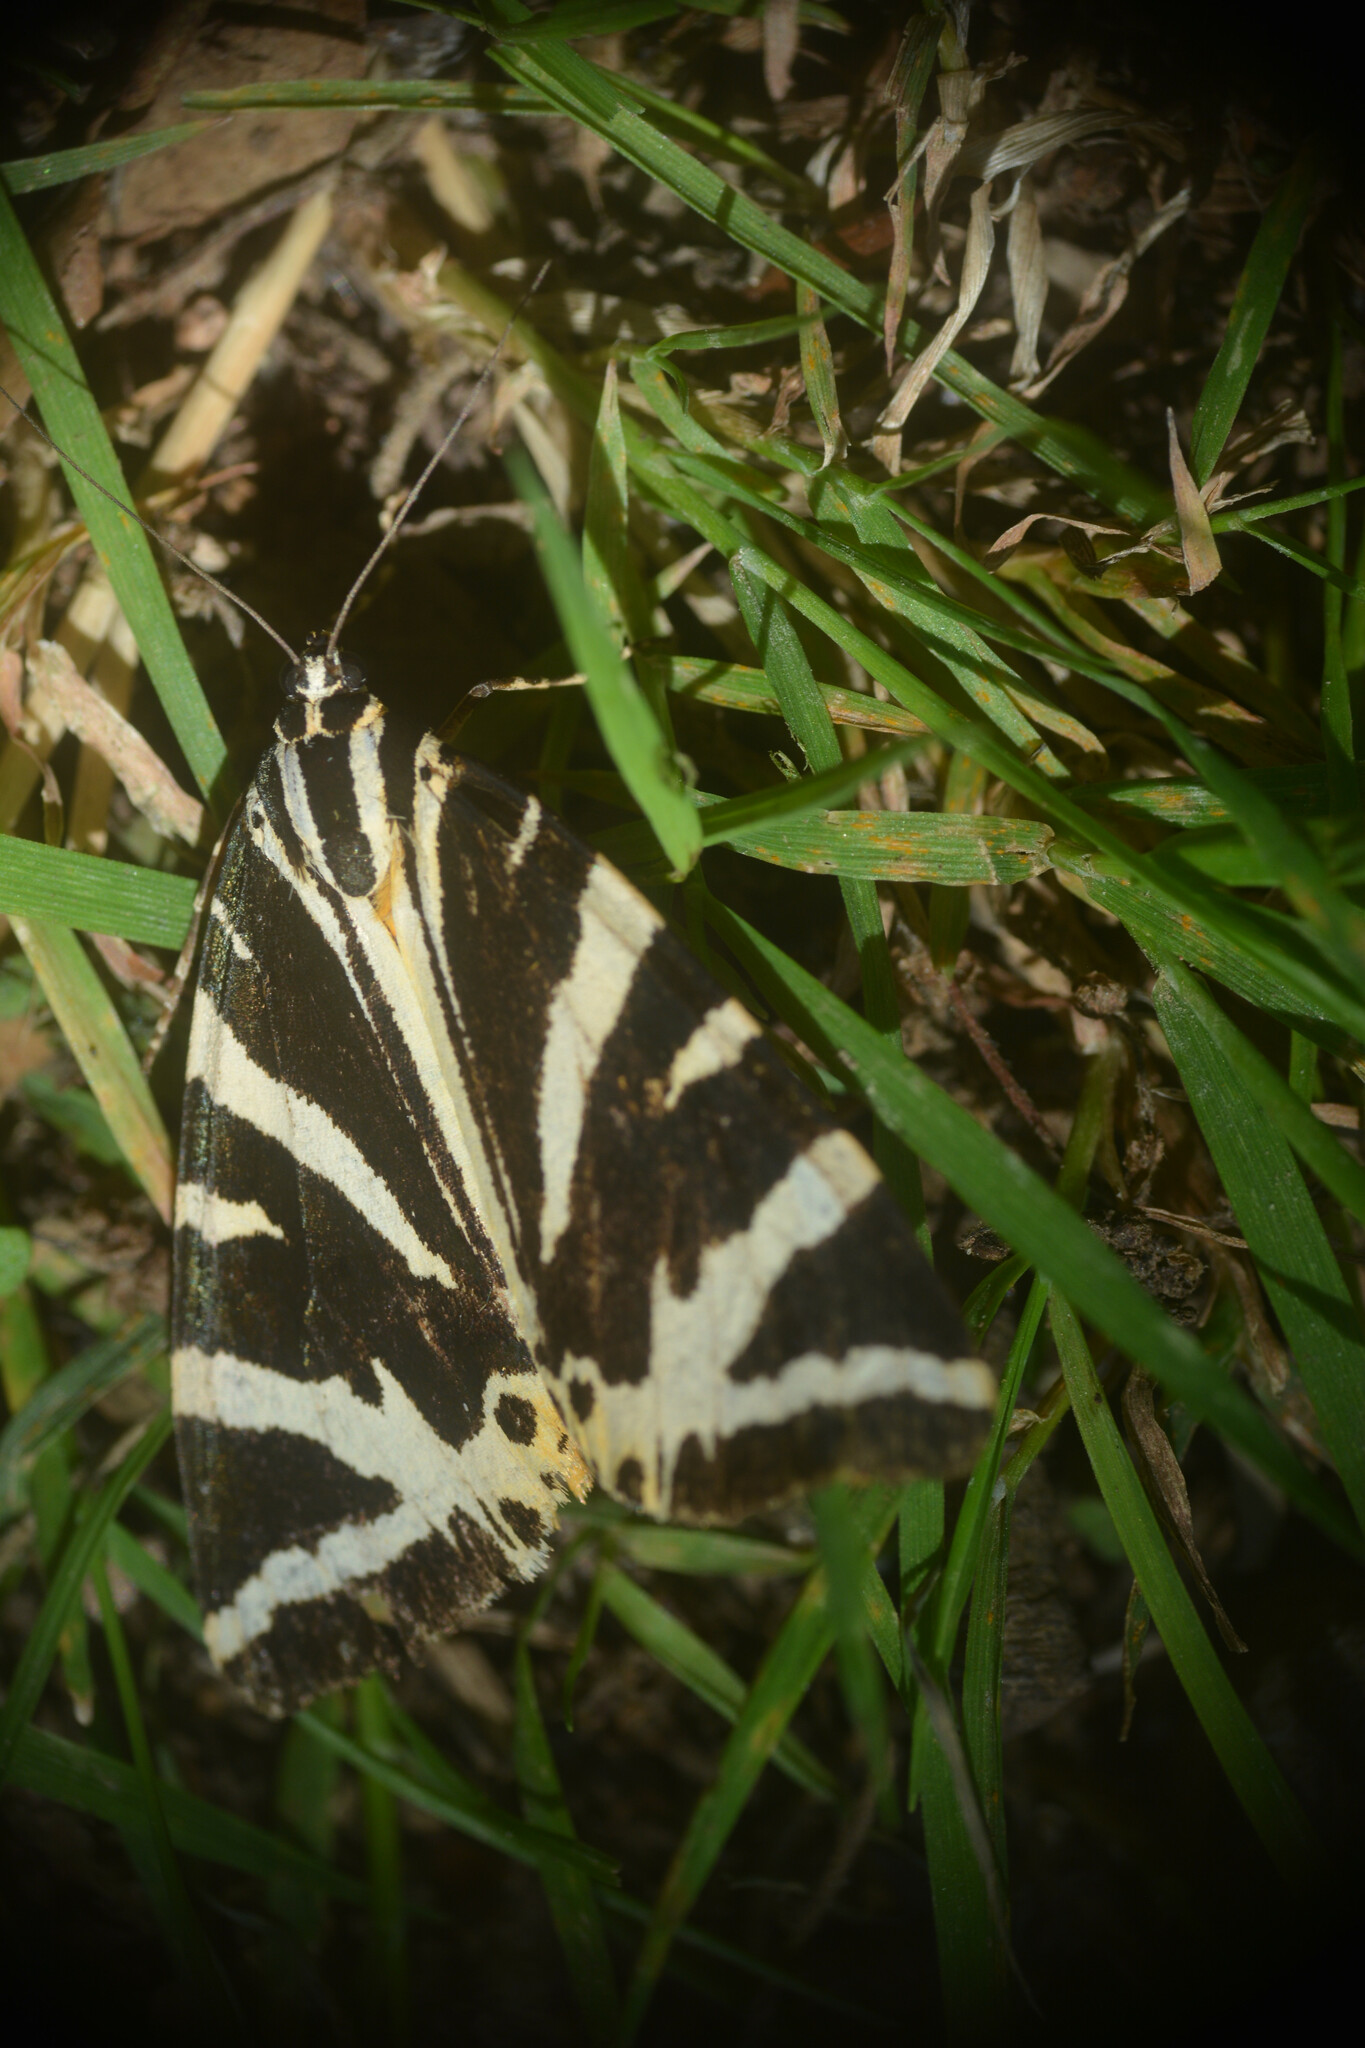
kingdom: Animalia
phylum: Arthropoda
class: Insecta
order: Lepidoptera
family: Erebidae
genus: Euplagia
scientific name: Euplagia quadripunctaria
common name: Jersey tiger
